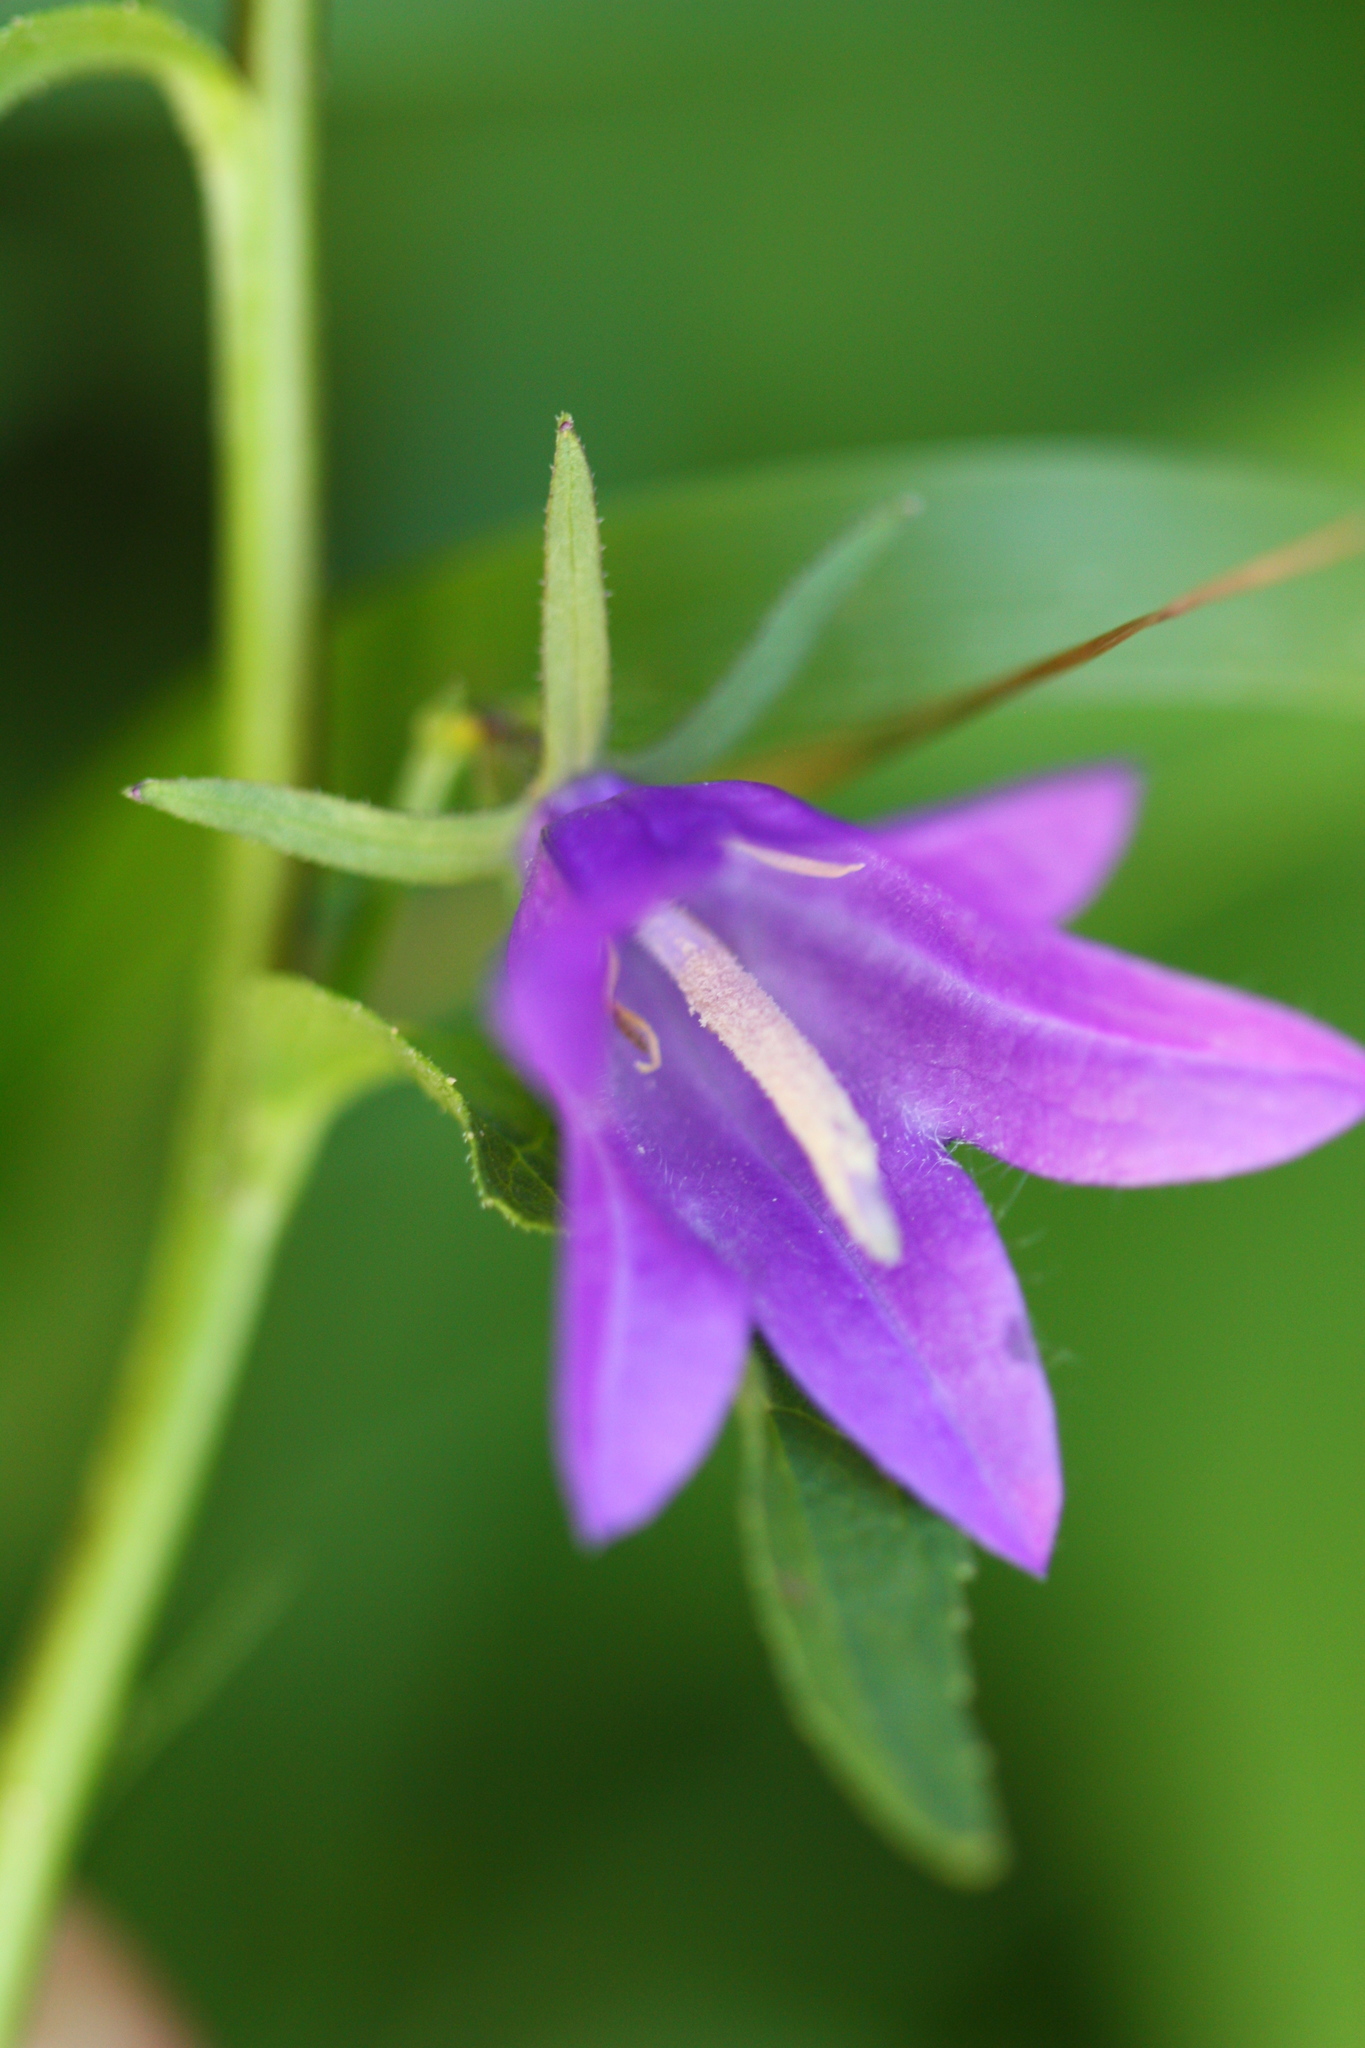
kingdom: Plantae
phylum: Tracheophyta
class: Magnoliopsida
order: Asterales
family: Campanulaceae
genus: Campanula
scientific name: Campanula rapunculoides
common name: Creeping bellflower
